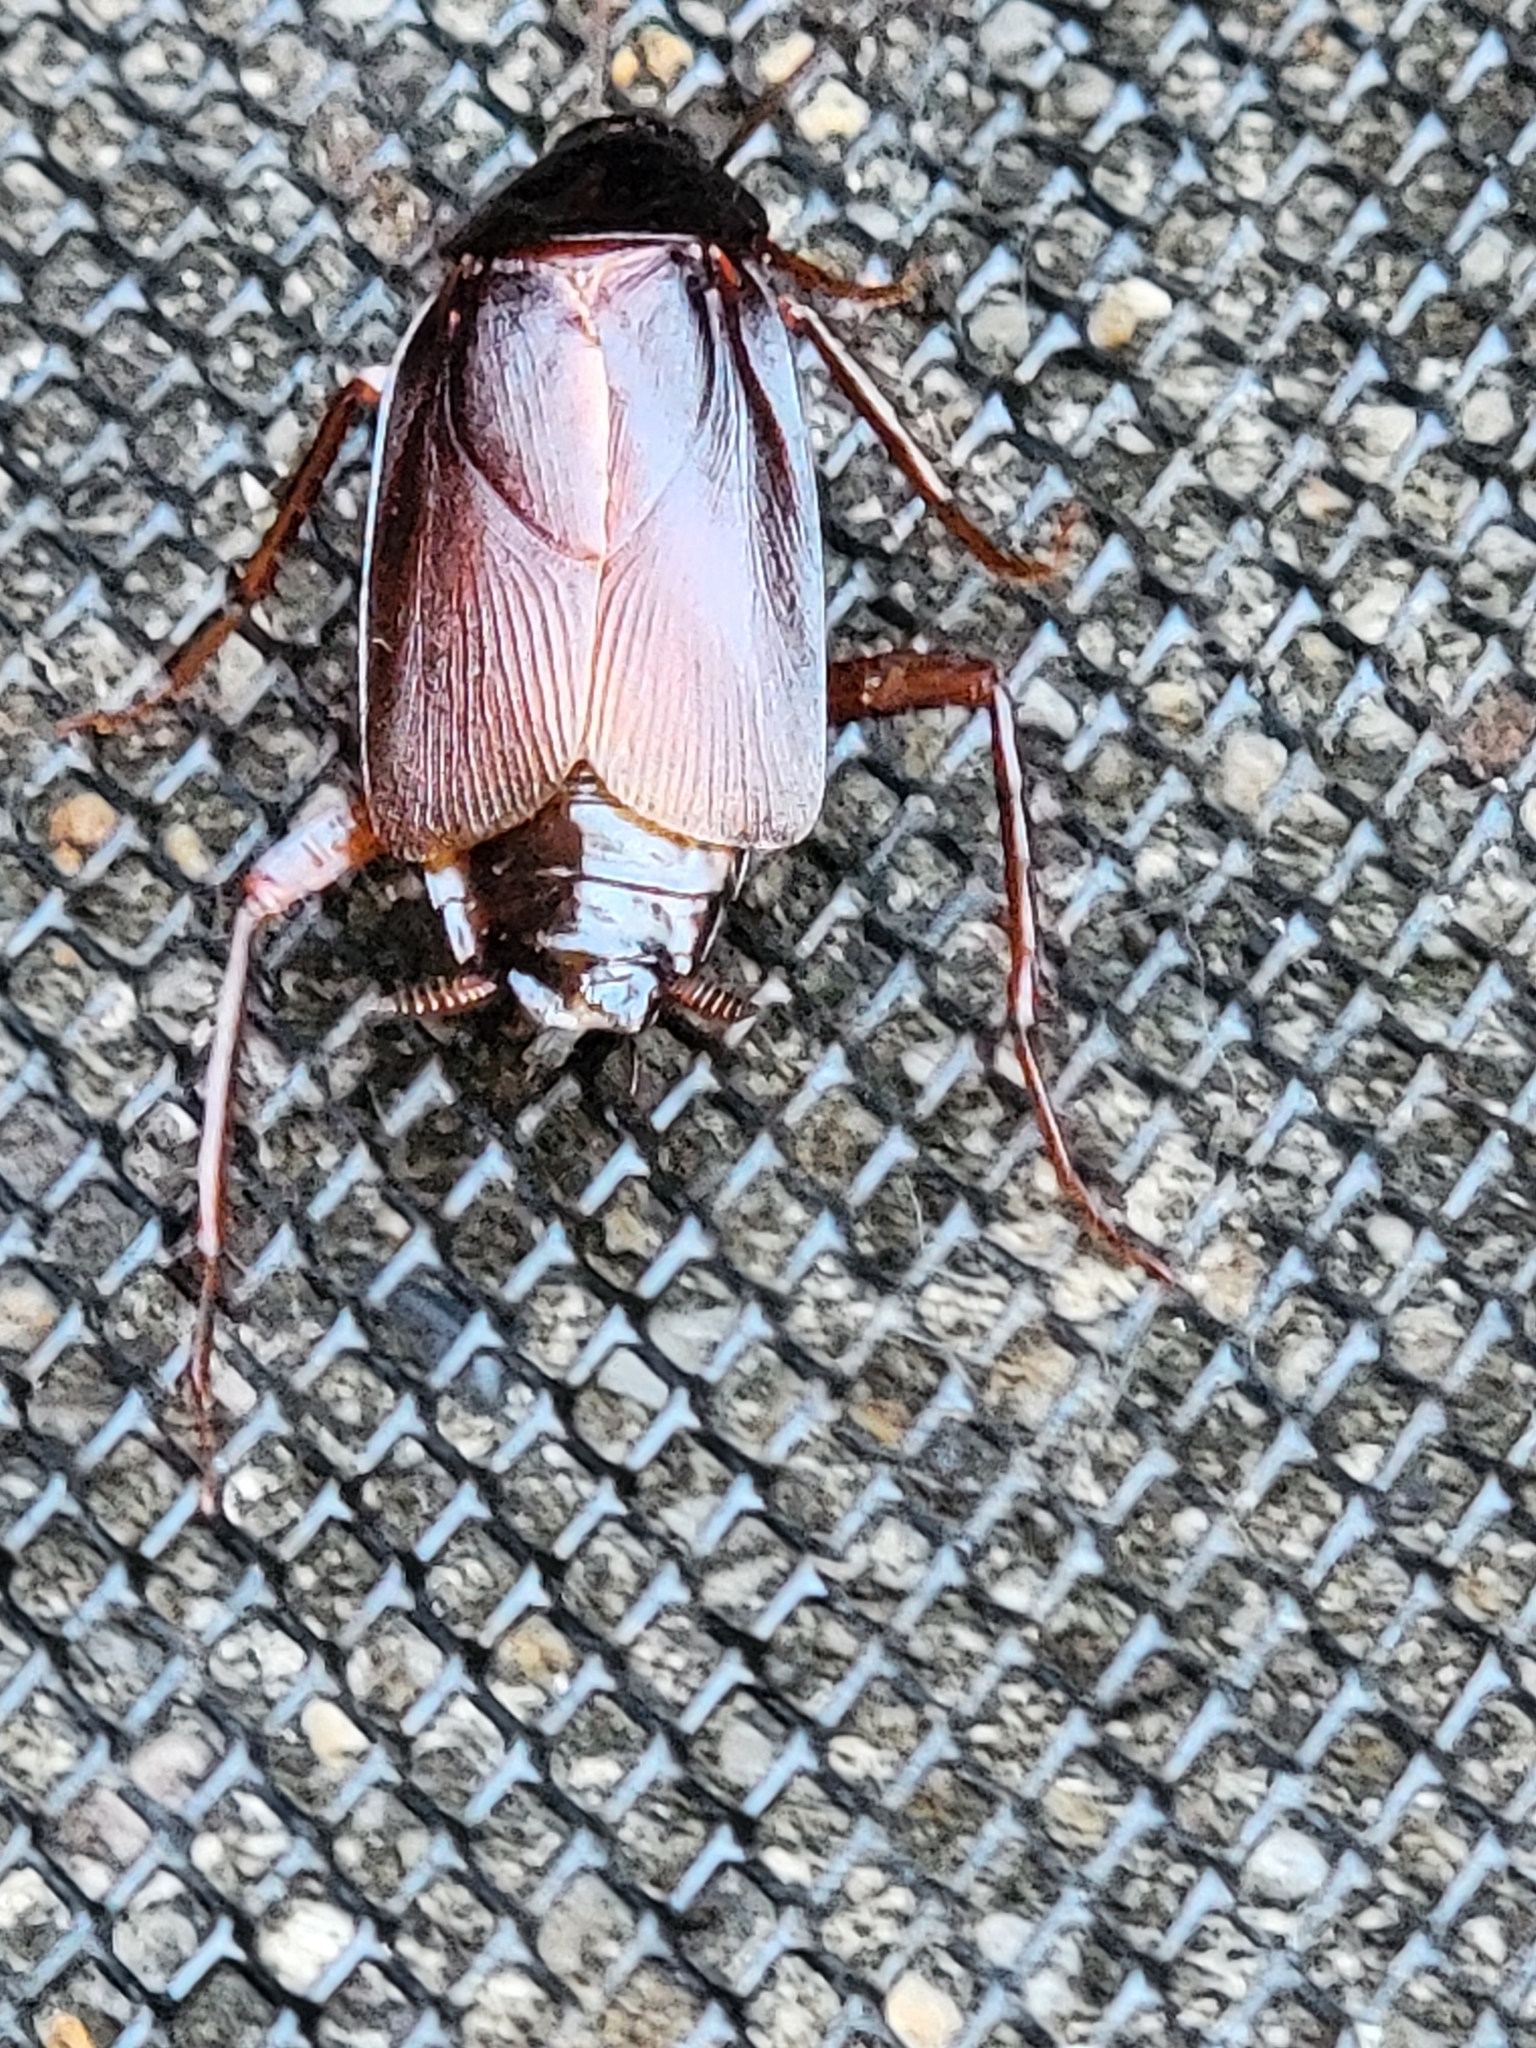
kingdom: Animalia
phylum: Arthropoda
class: Insecta
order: Blattodea
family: Blattidae
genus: Blatta
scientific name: Blatta orientalis
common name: Oriental cockroach
